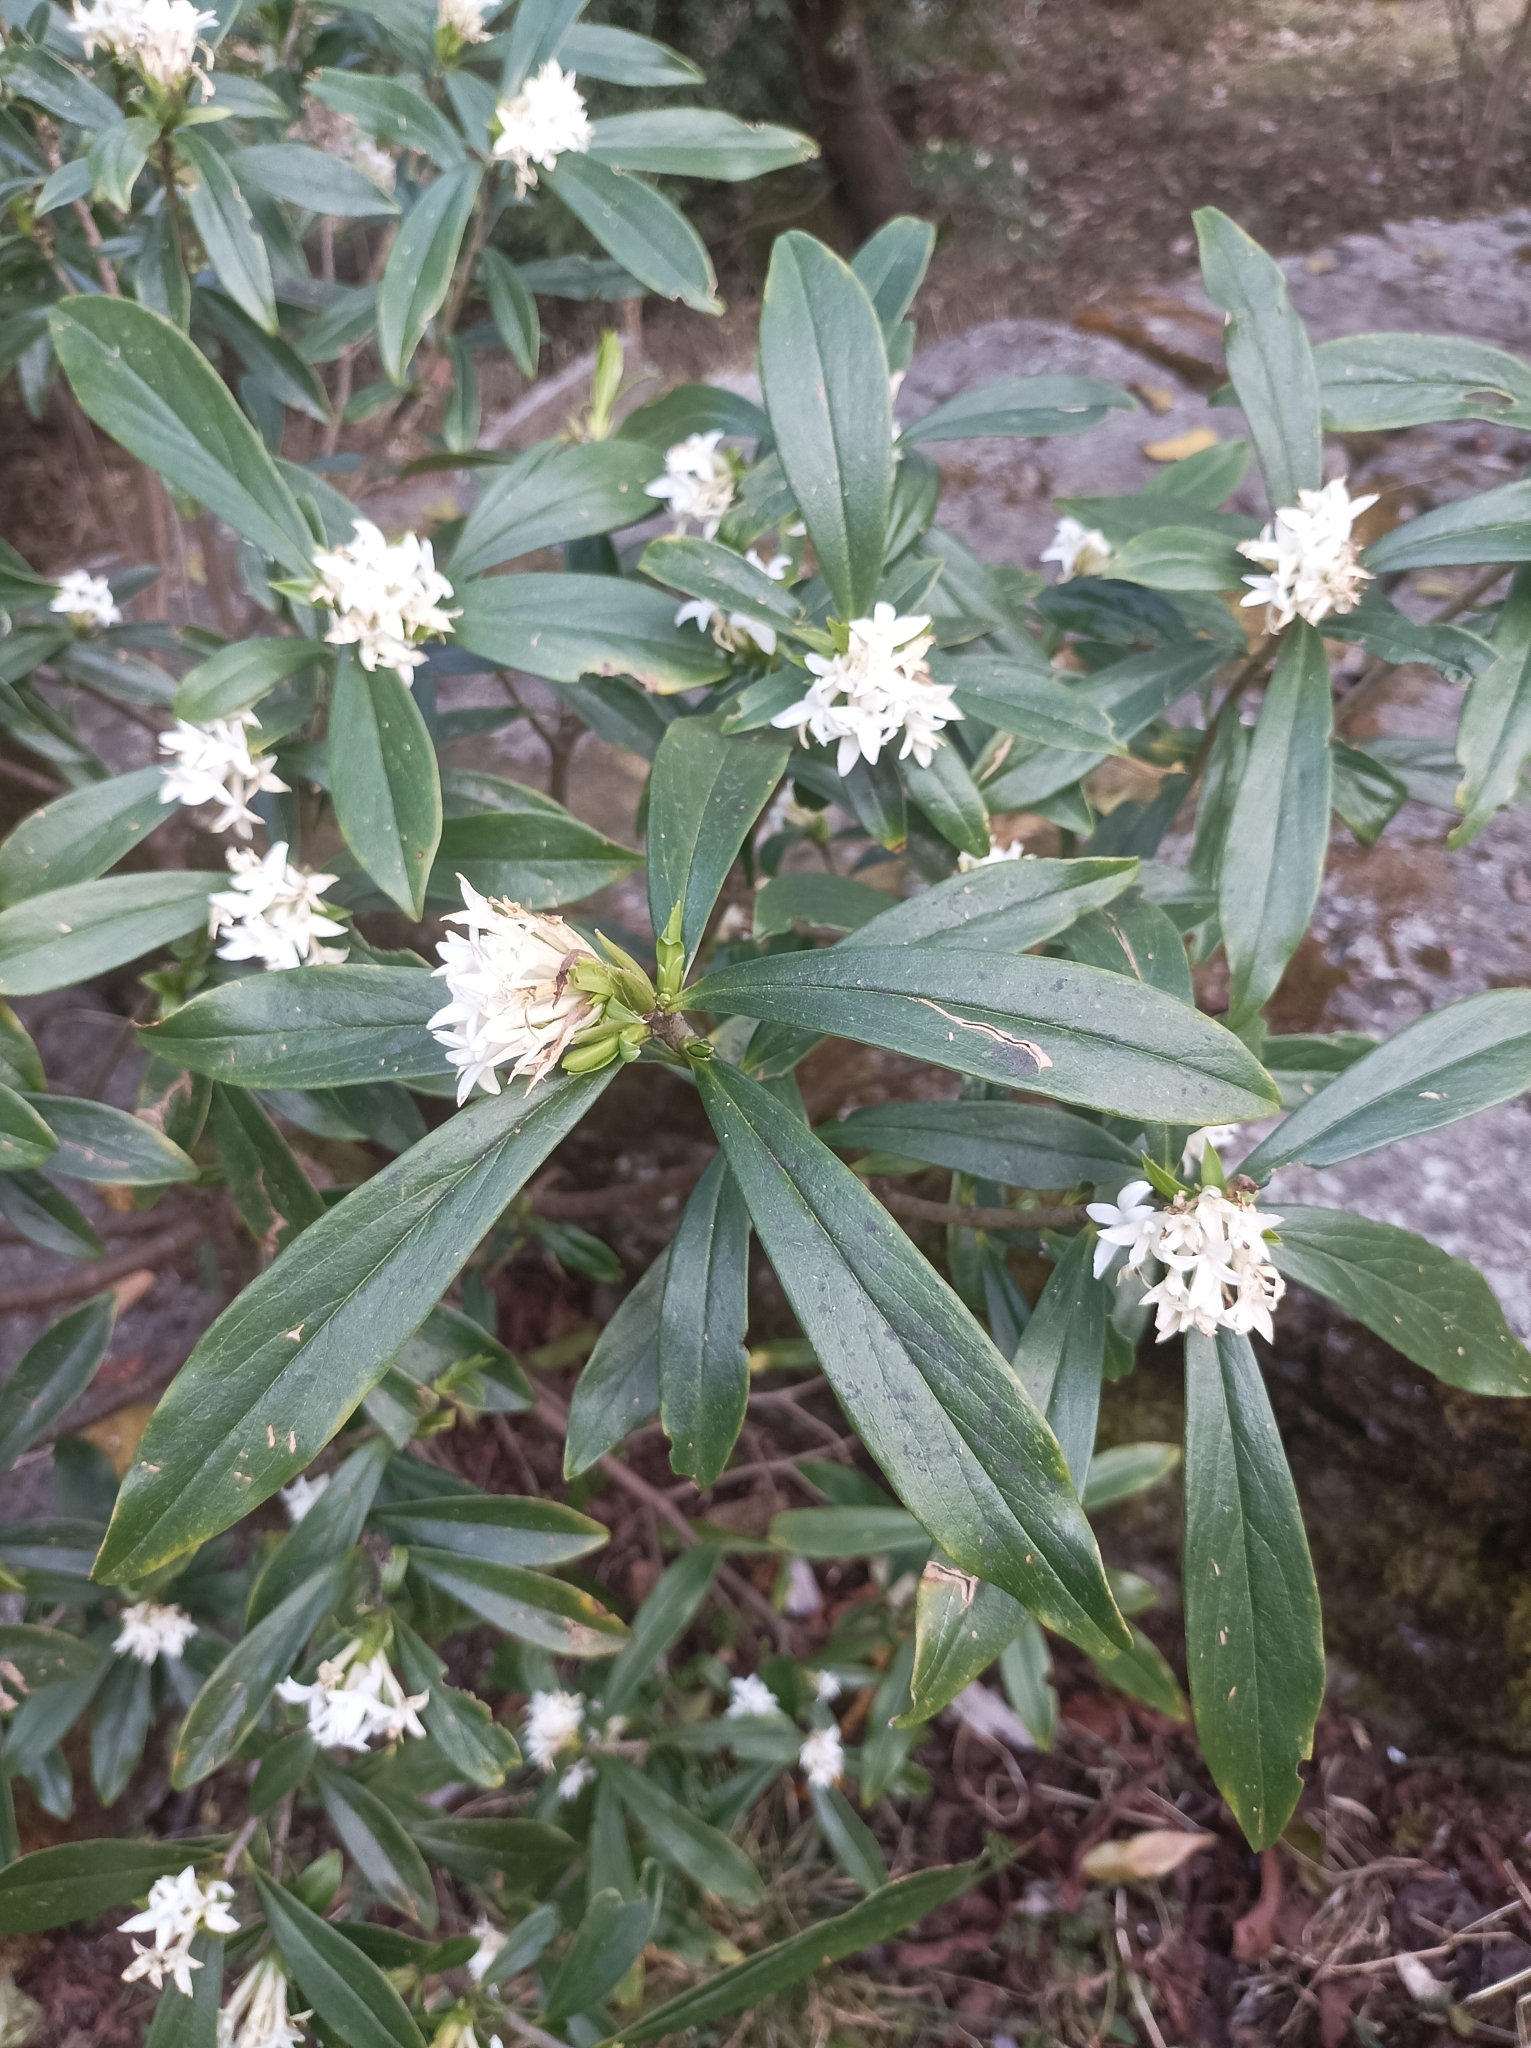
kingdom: Plantae
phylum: Tracheophyta
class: Magnoliopsida
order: Malvales
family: Thymelaeaceae
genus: Daphne
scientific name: Daphne papyracea
